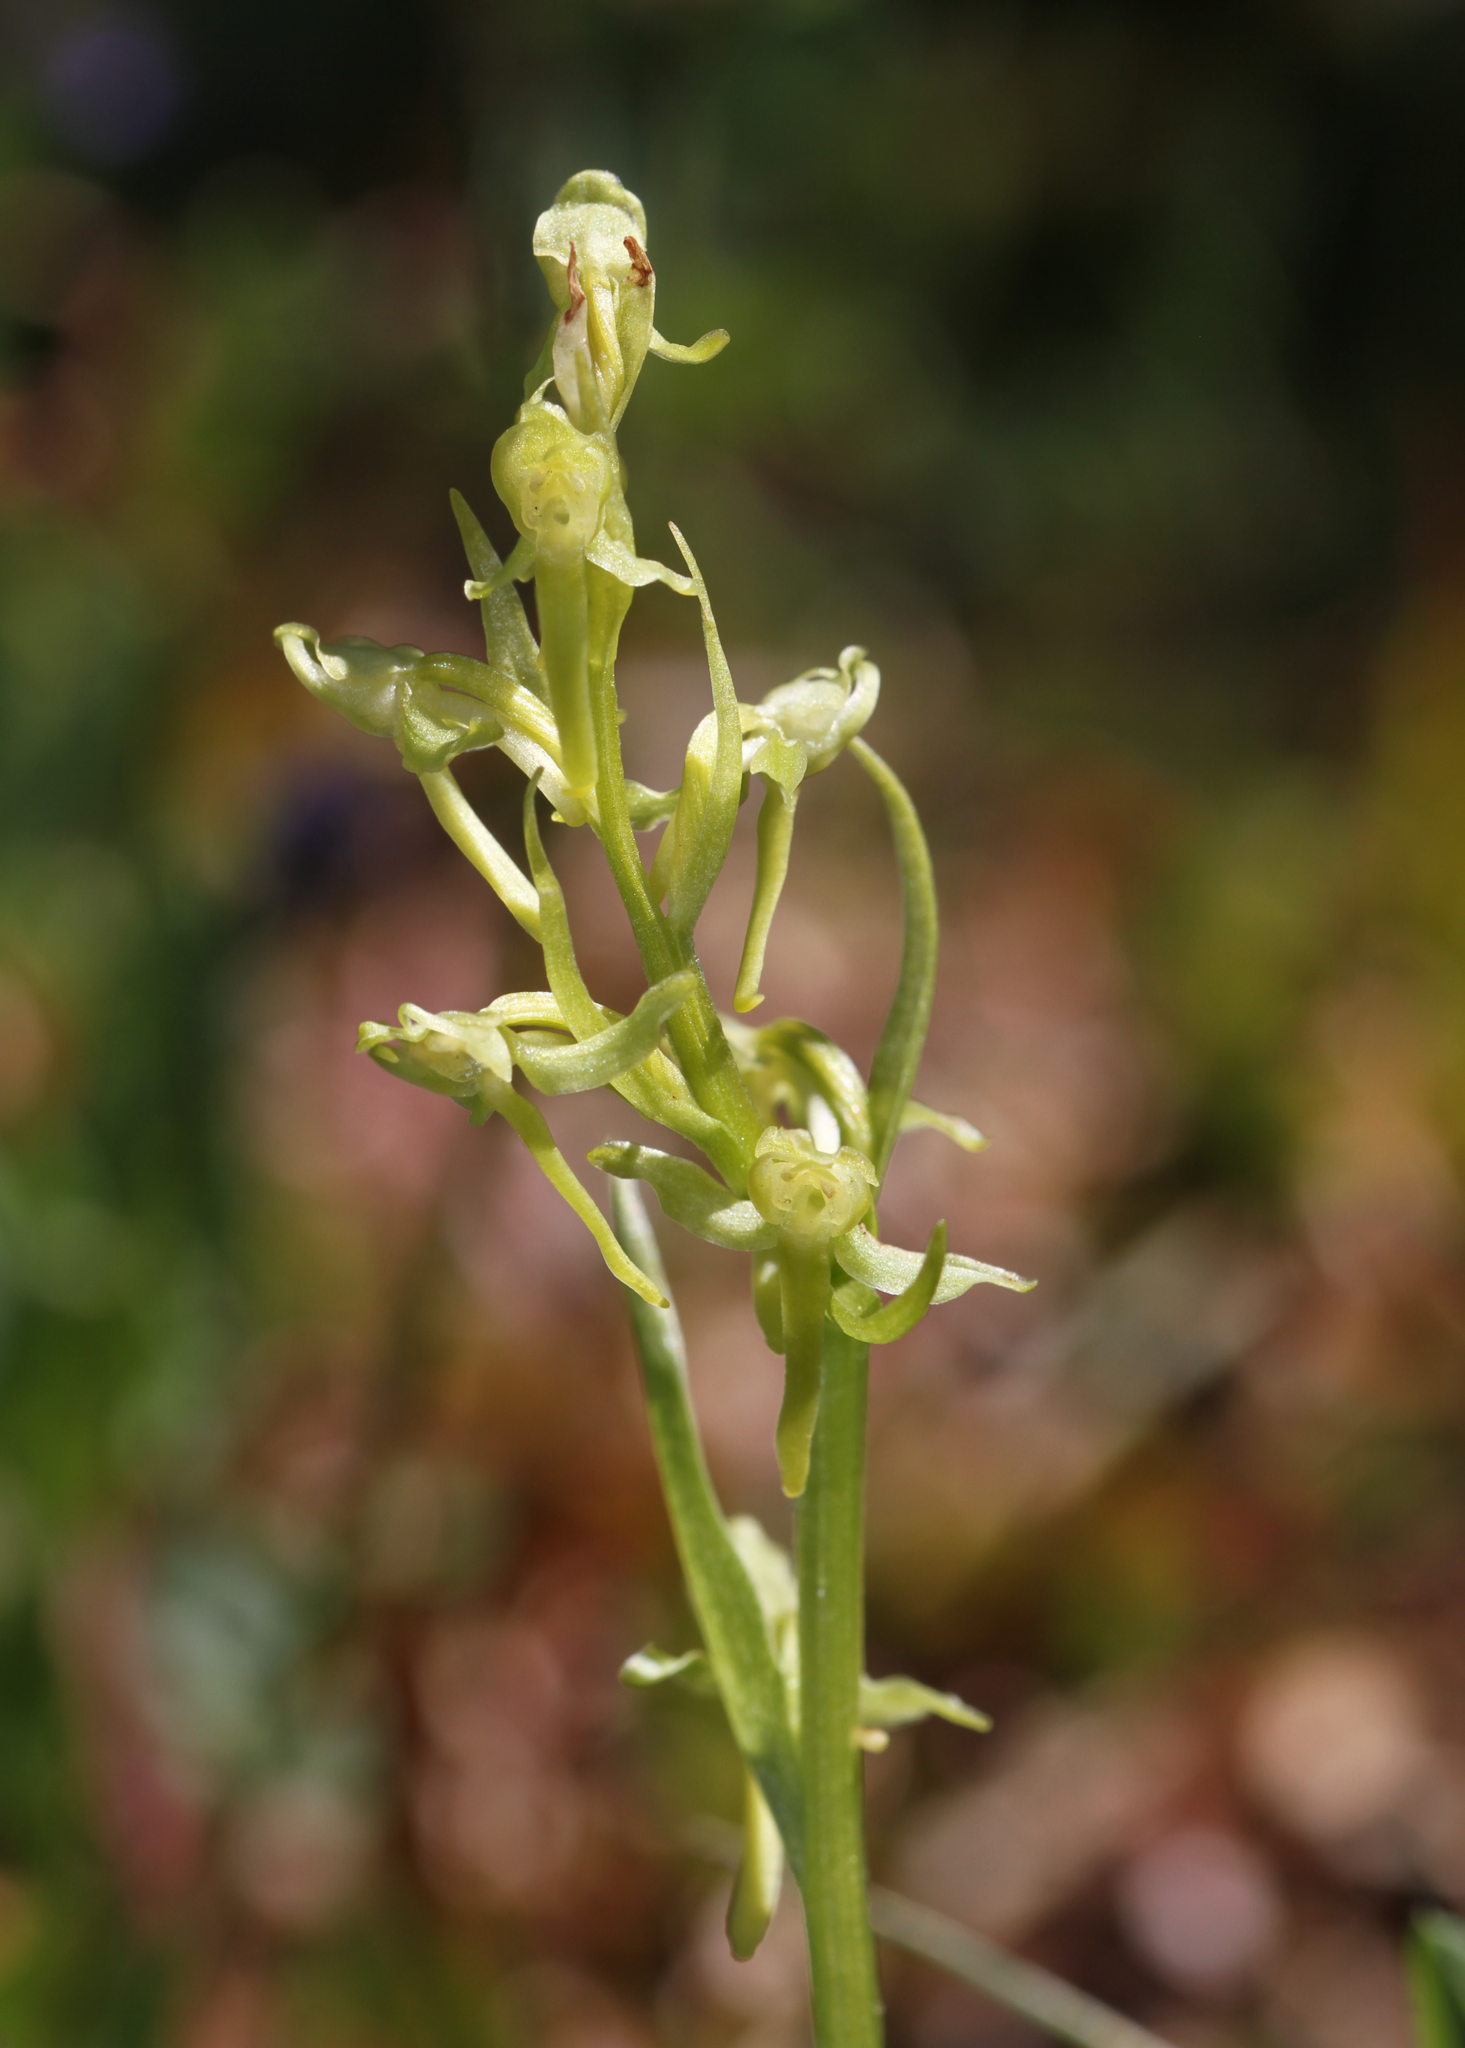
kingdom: Plantae
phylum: Tracheophyta
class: Liliopsida
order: Asparagales
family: Orchidaceae
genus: Platanthera
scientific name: Platanthera sparsiflora
